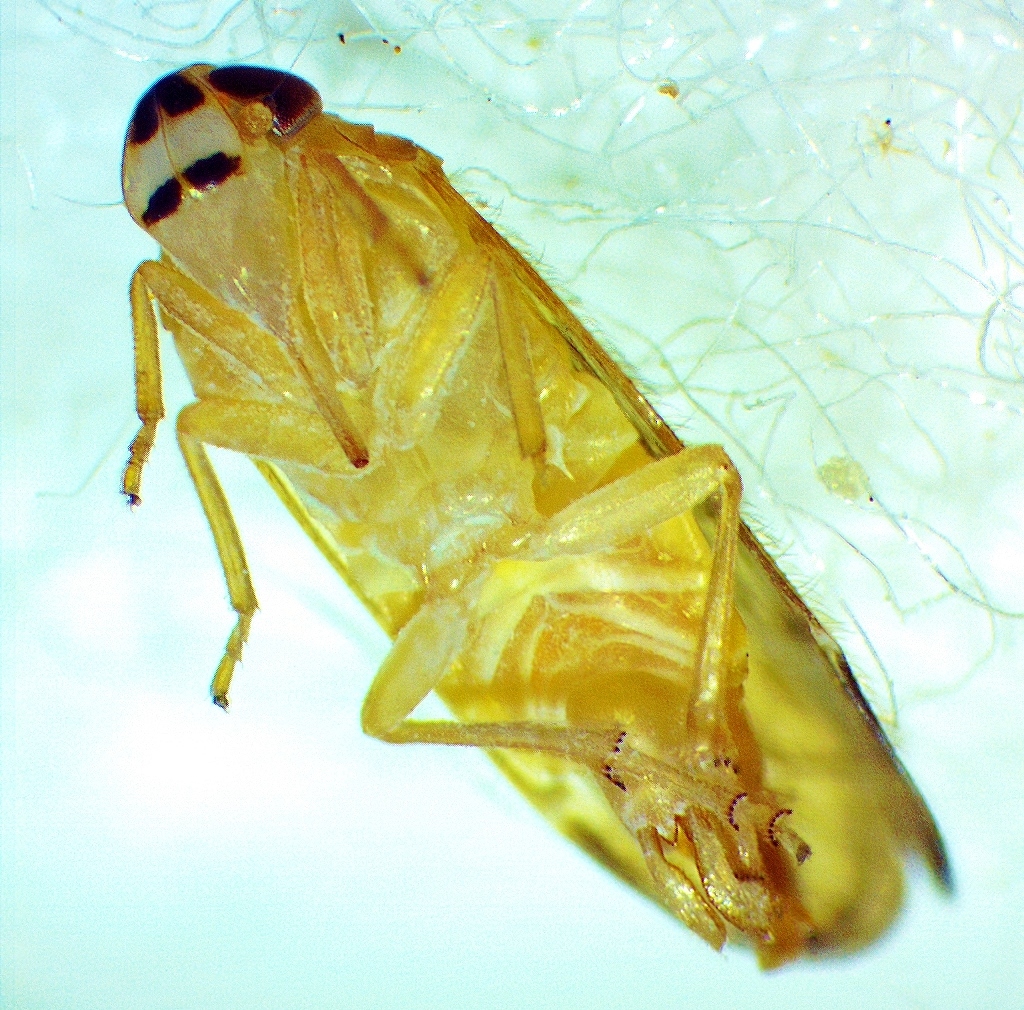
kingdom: Animalia
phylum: Arthropoda
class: Insecta
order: Hemiptera
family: Cixiidae
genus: Haplaxius
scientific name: Haplaxius pictifrons
